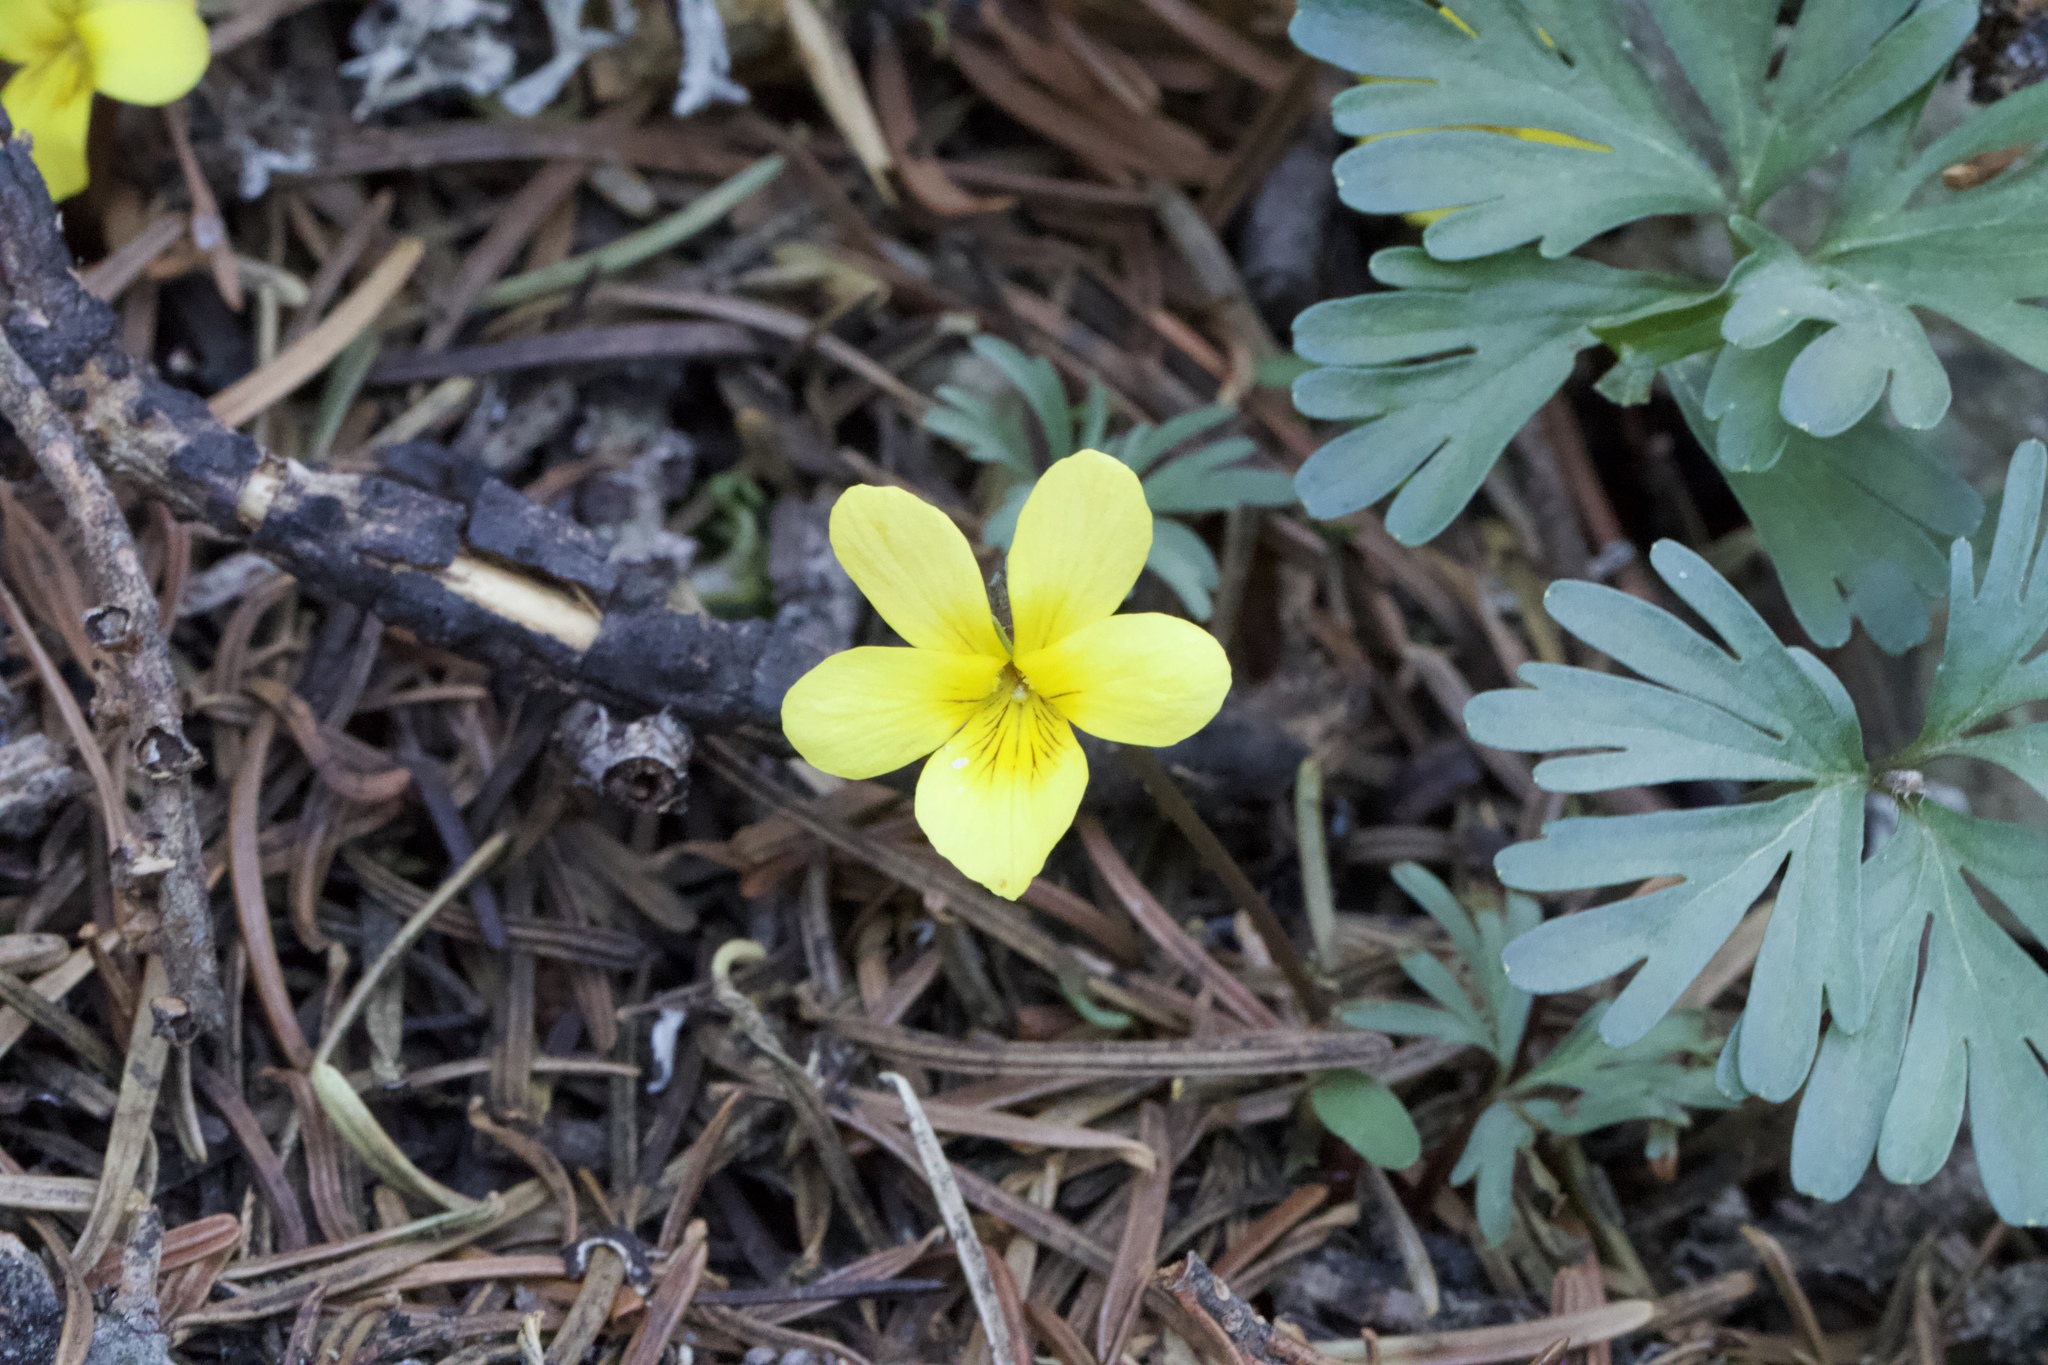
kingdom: Plantae
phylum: Tracheophyta
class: Magnoliopsida
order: Malpighiales
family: Violaceae
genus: Viola
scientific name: Viola sheltonii
